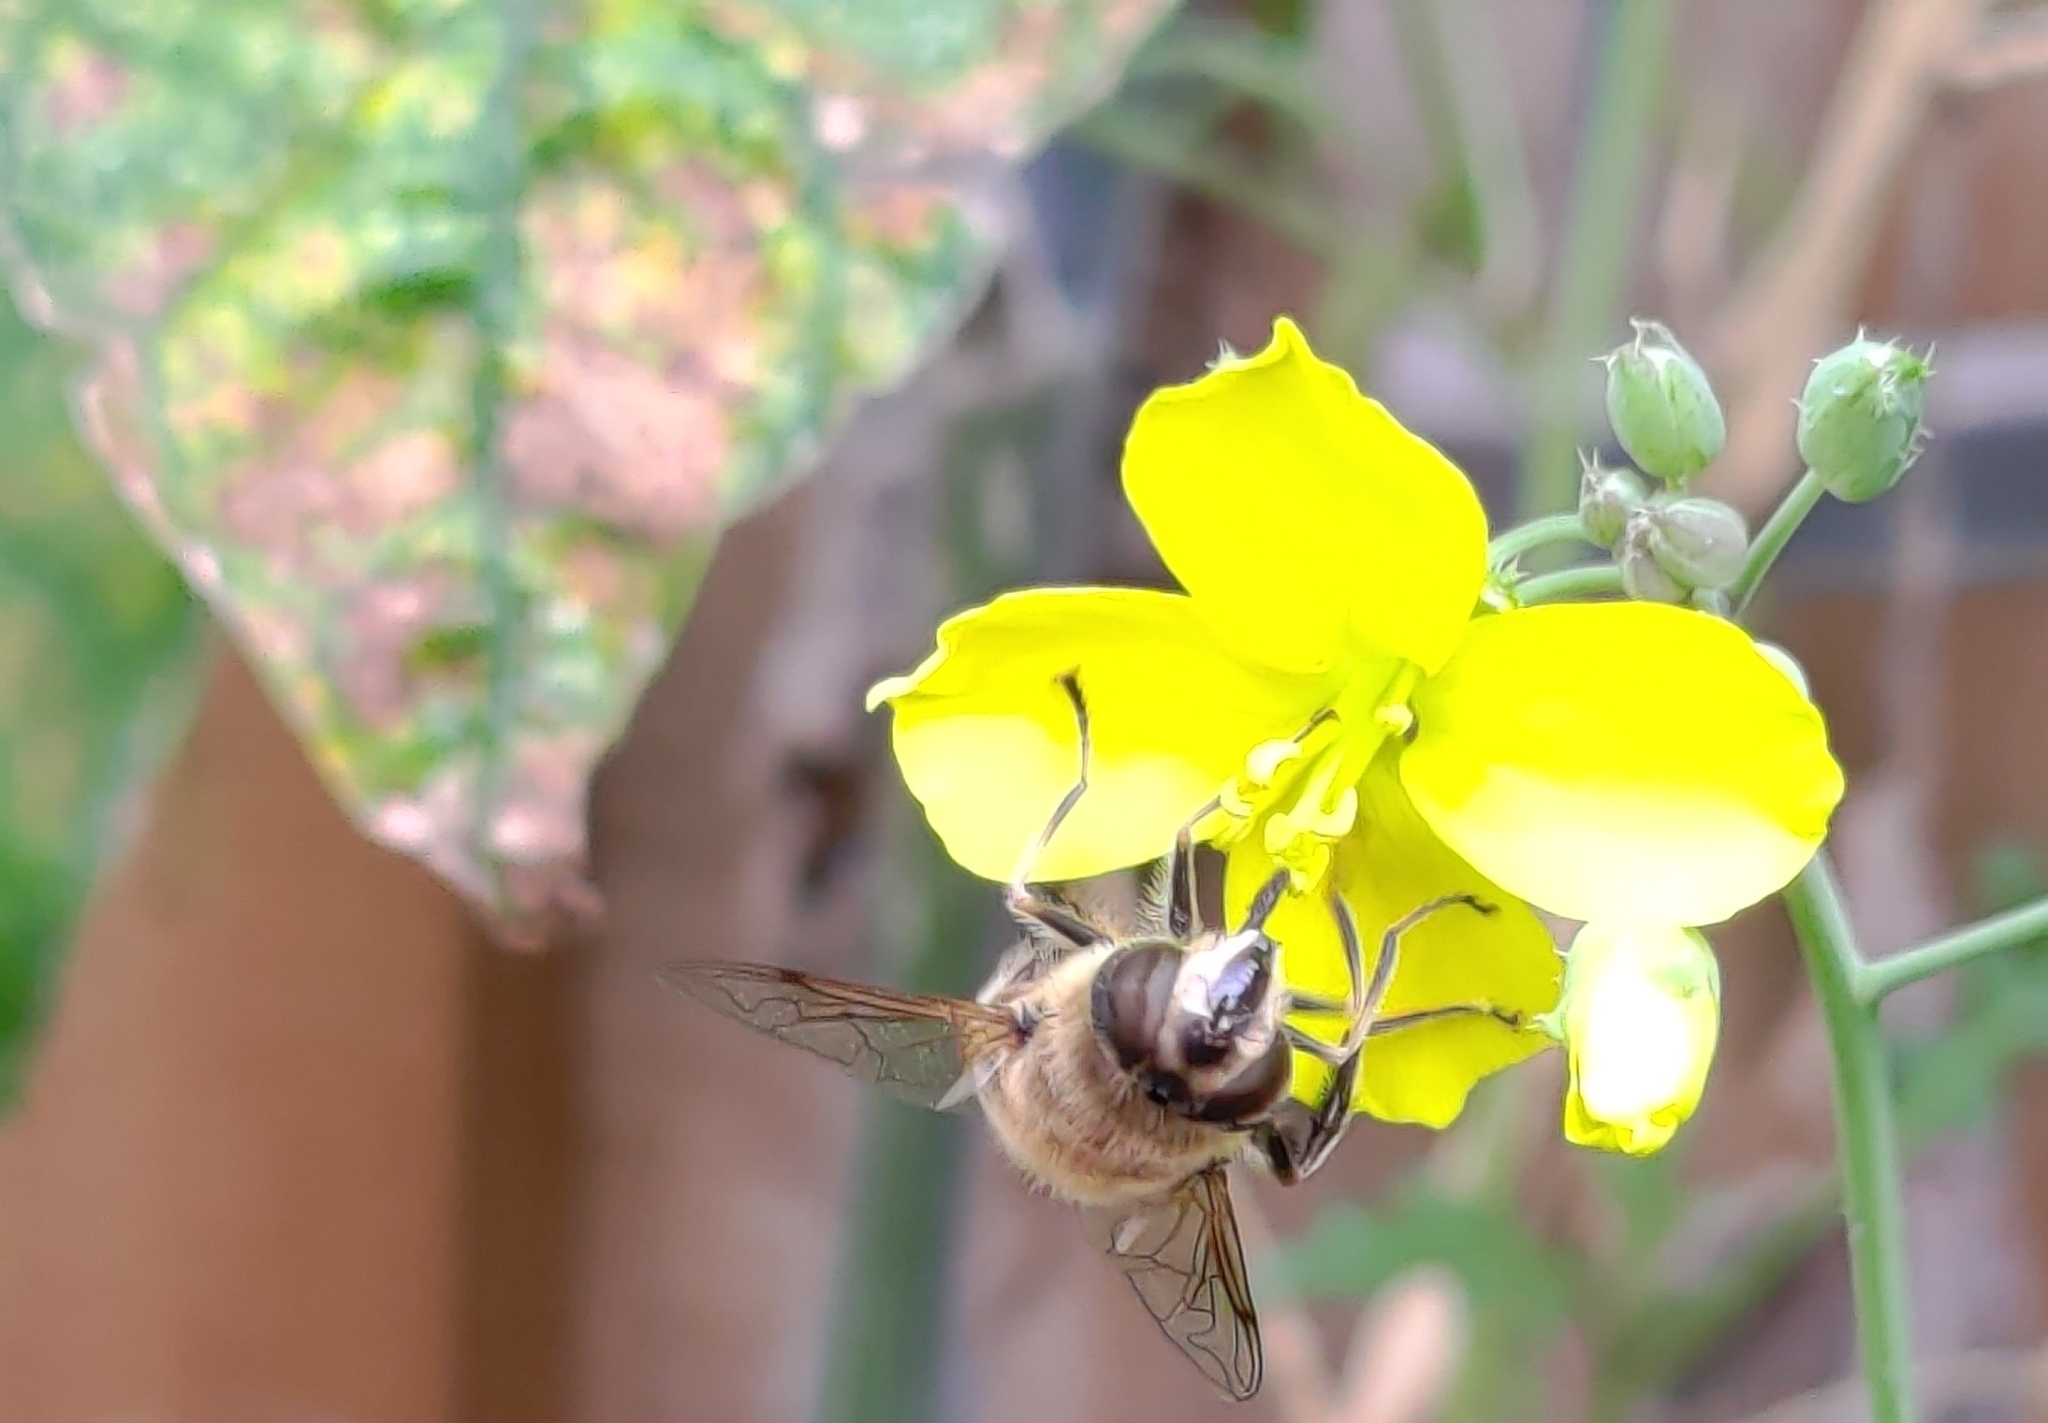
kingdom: Animalia
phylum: Arthropoda
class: Insecta
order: Diptera
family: Syrphidae
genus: Eristalis
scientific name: Eristalis tenax
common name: Drone fly
